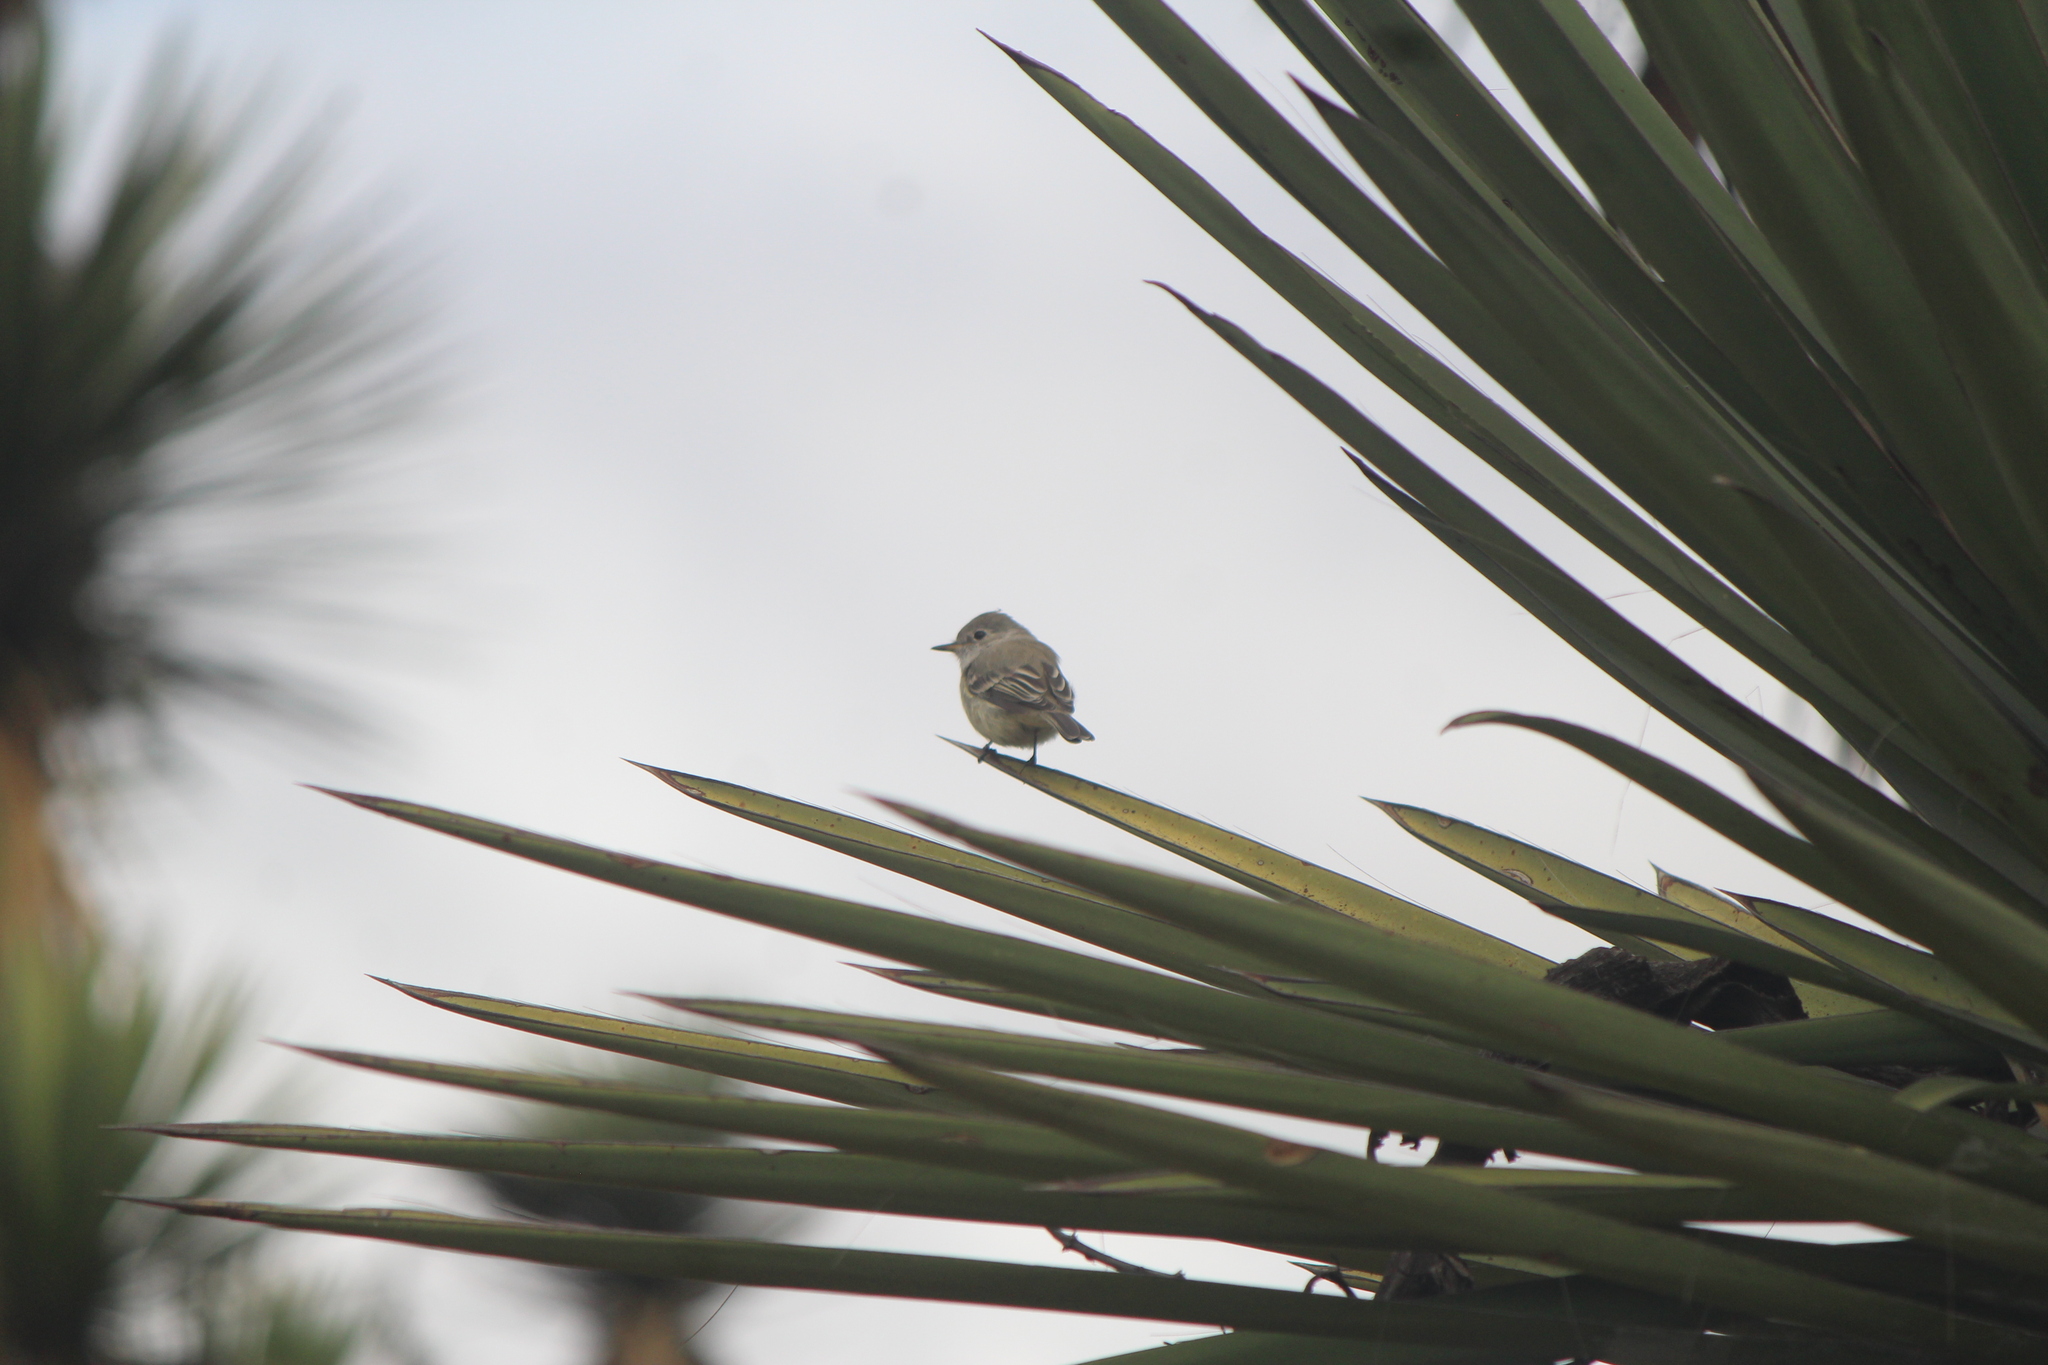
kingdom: Animalia
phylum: Chordata
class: Aves
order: Passeriformes
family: Tyrannidae
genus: Empidonax
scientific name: Empidonax wrightii
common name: Gray flycatcher
